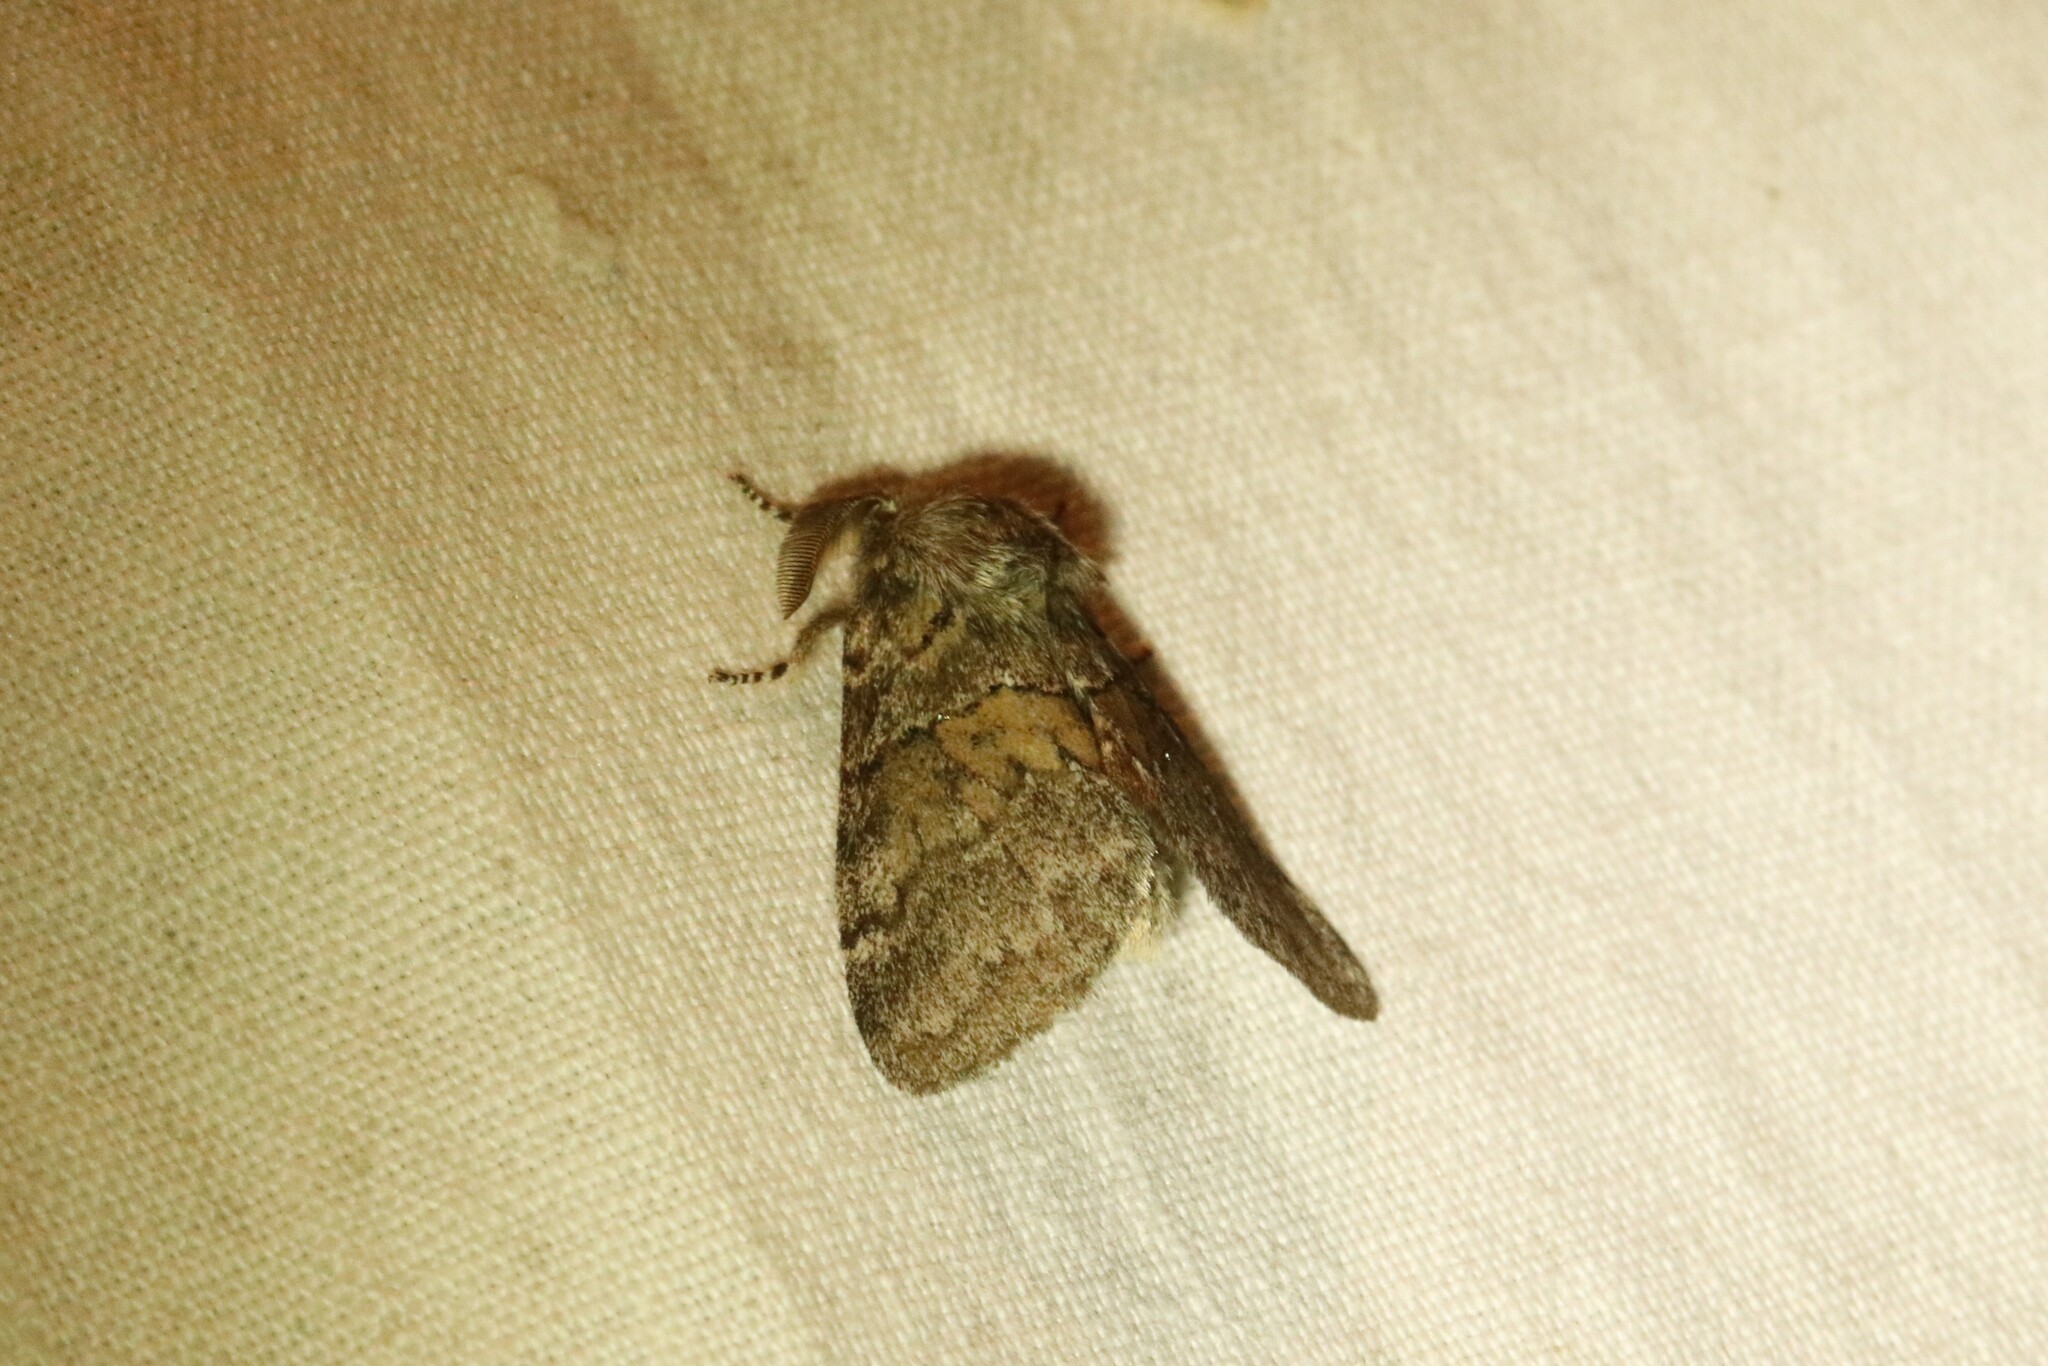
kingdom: Animalia
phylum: Arthropoda
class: Insecta
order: Lepidoptera
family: Notodontidae
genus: Gluphisia
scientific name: Gluphisia septentrionis
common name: Common gluphisia
